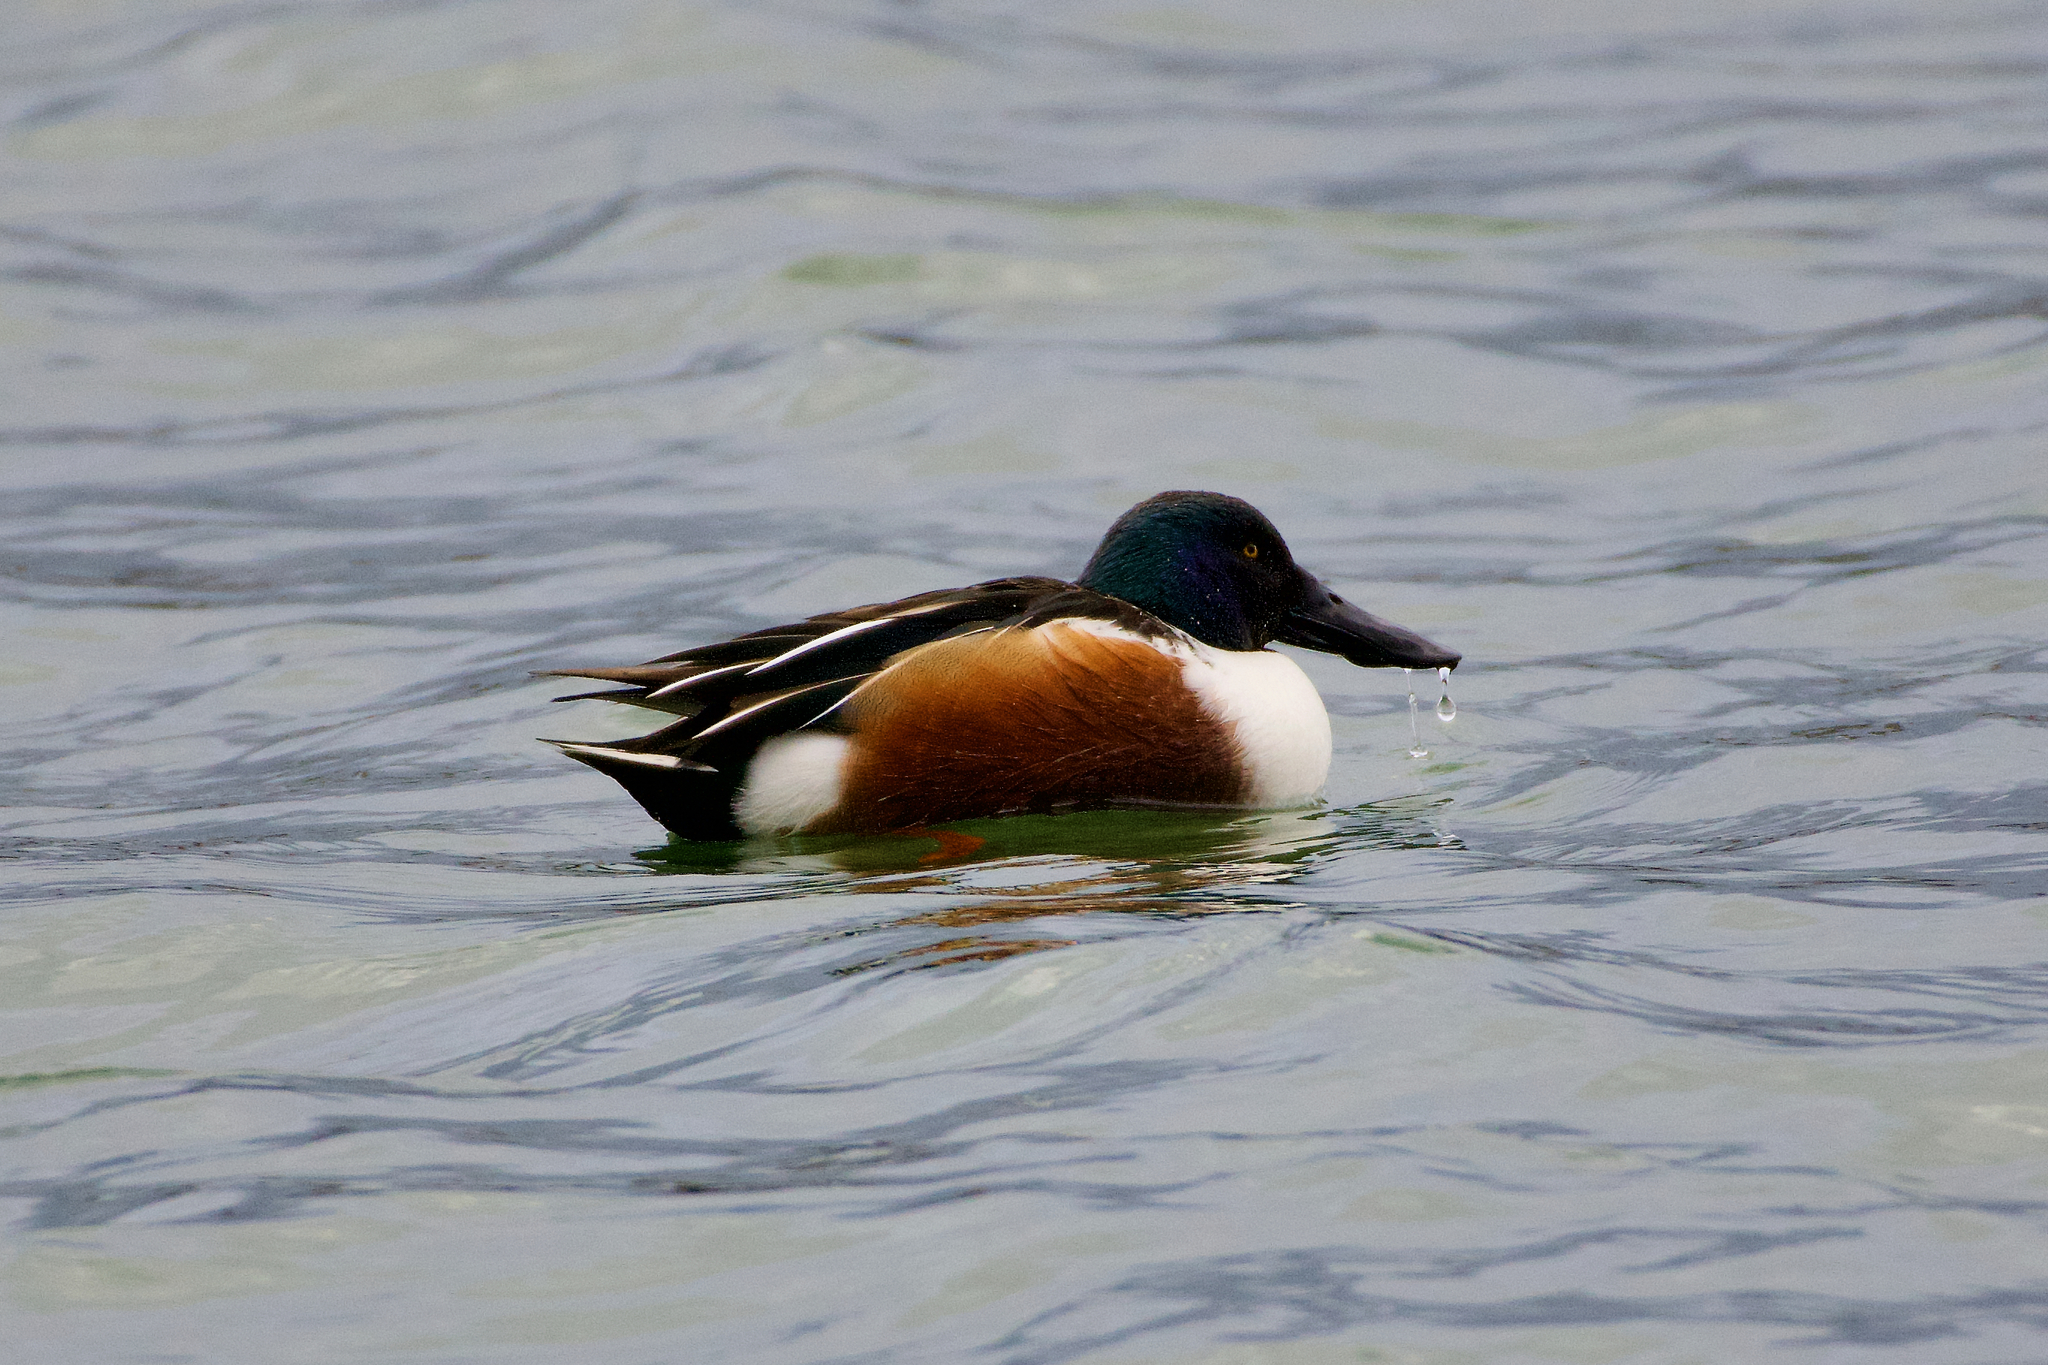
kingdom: Animalia
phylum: Chordata
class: Aves
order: Anseriformes
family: Anatidae
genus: Spatula
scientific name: Spatula clypeata
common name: Northern shoveler
